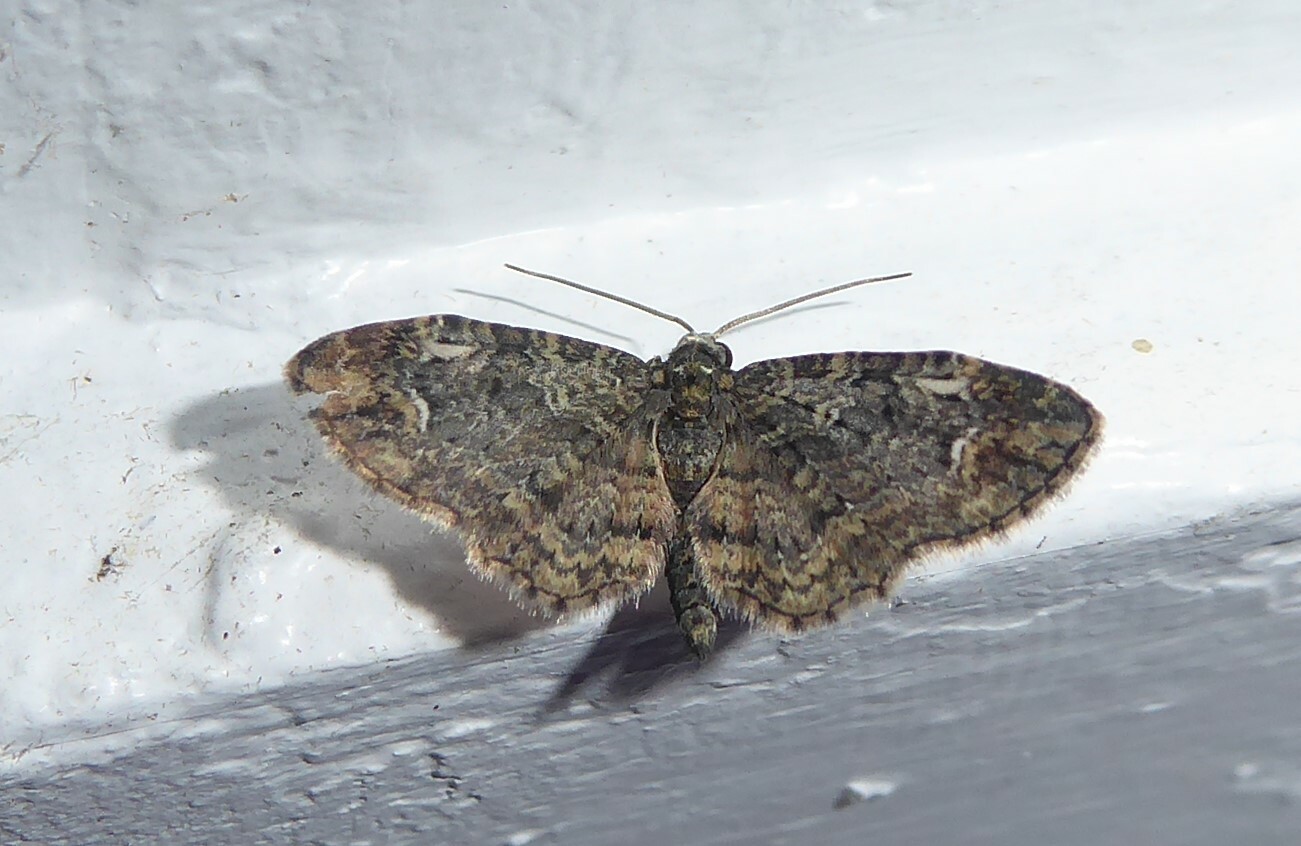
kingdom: Animalia
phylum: Arthropoda
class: Insecta
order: Lepidoptera
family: Geometridae
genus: Pasiphilodes
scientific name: Pasiphilodes testulata
